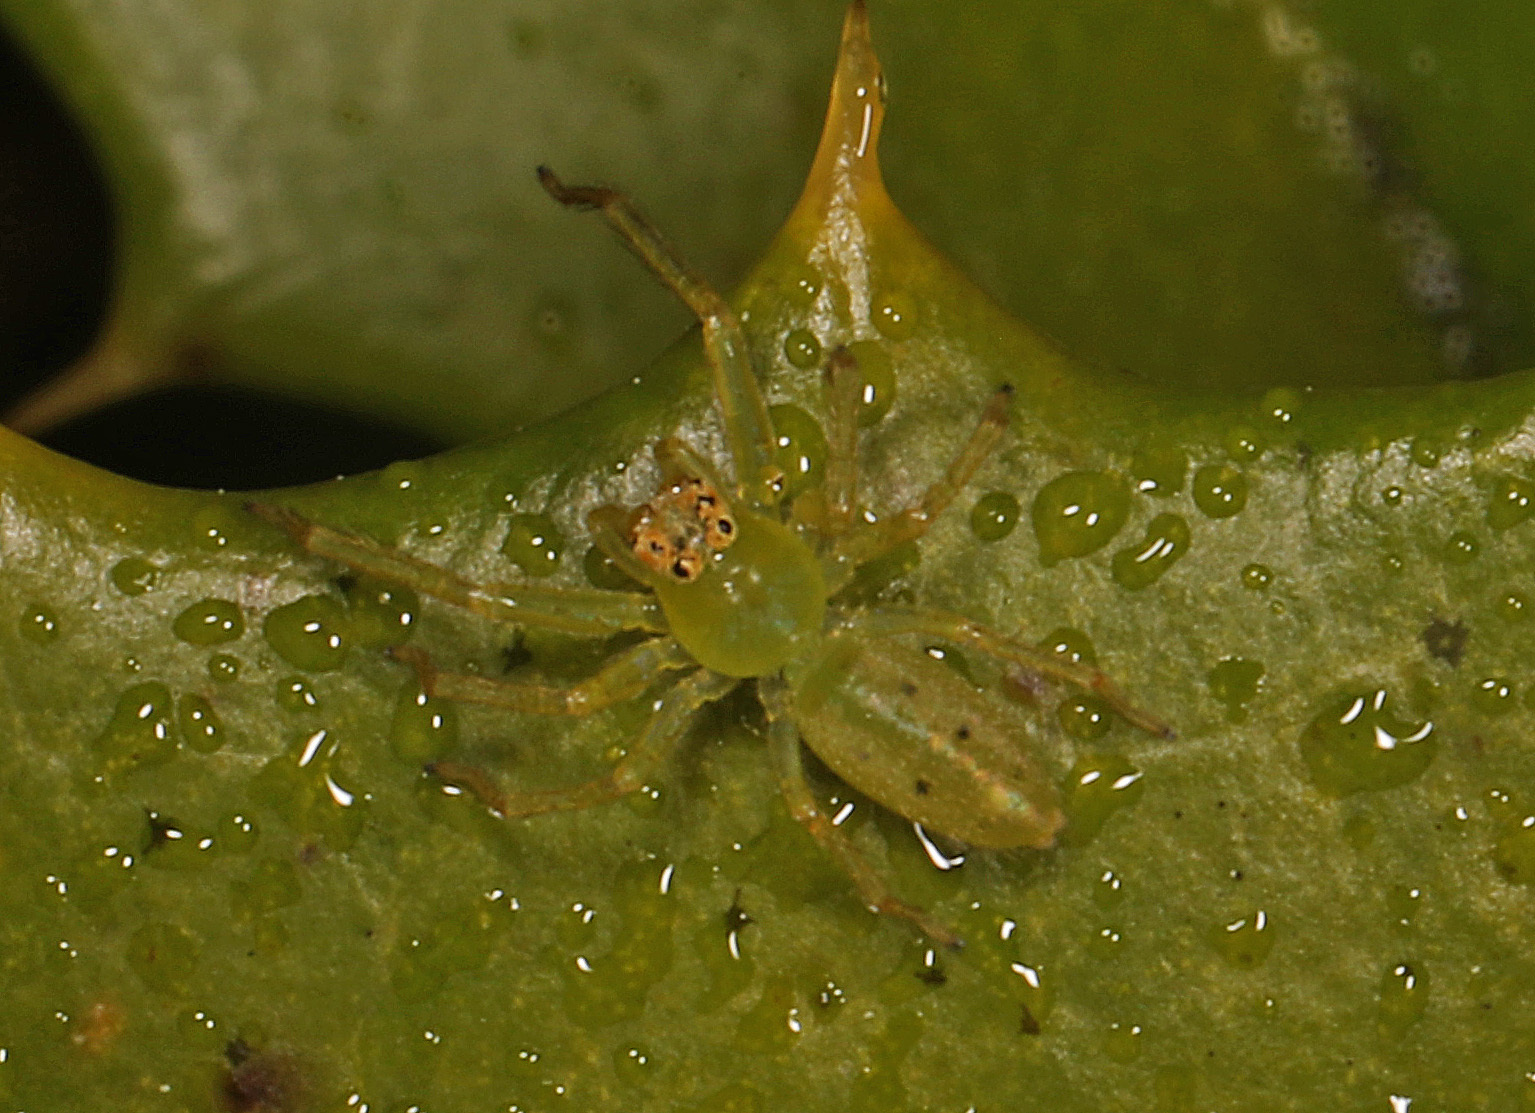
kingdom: Animalia
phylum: Arthropoda
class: Arachnida
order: Araneae
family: Salticidae
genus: Lyssomanes
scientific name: Lyssomanes viridis
